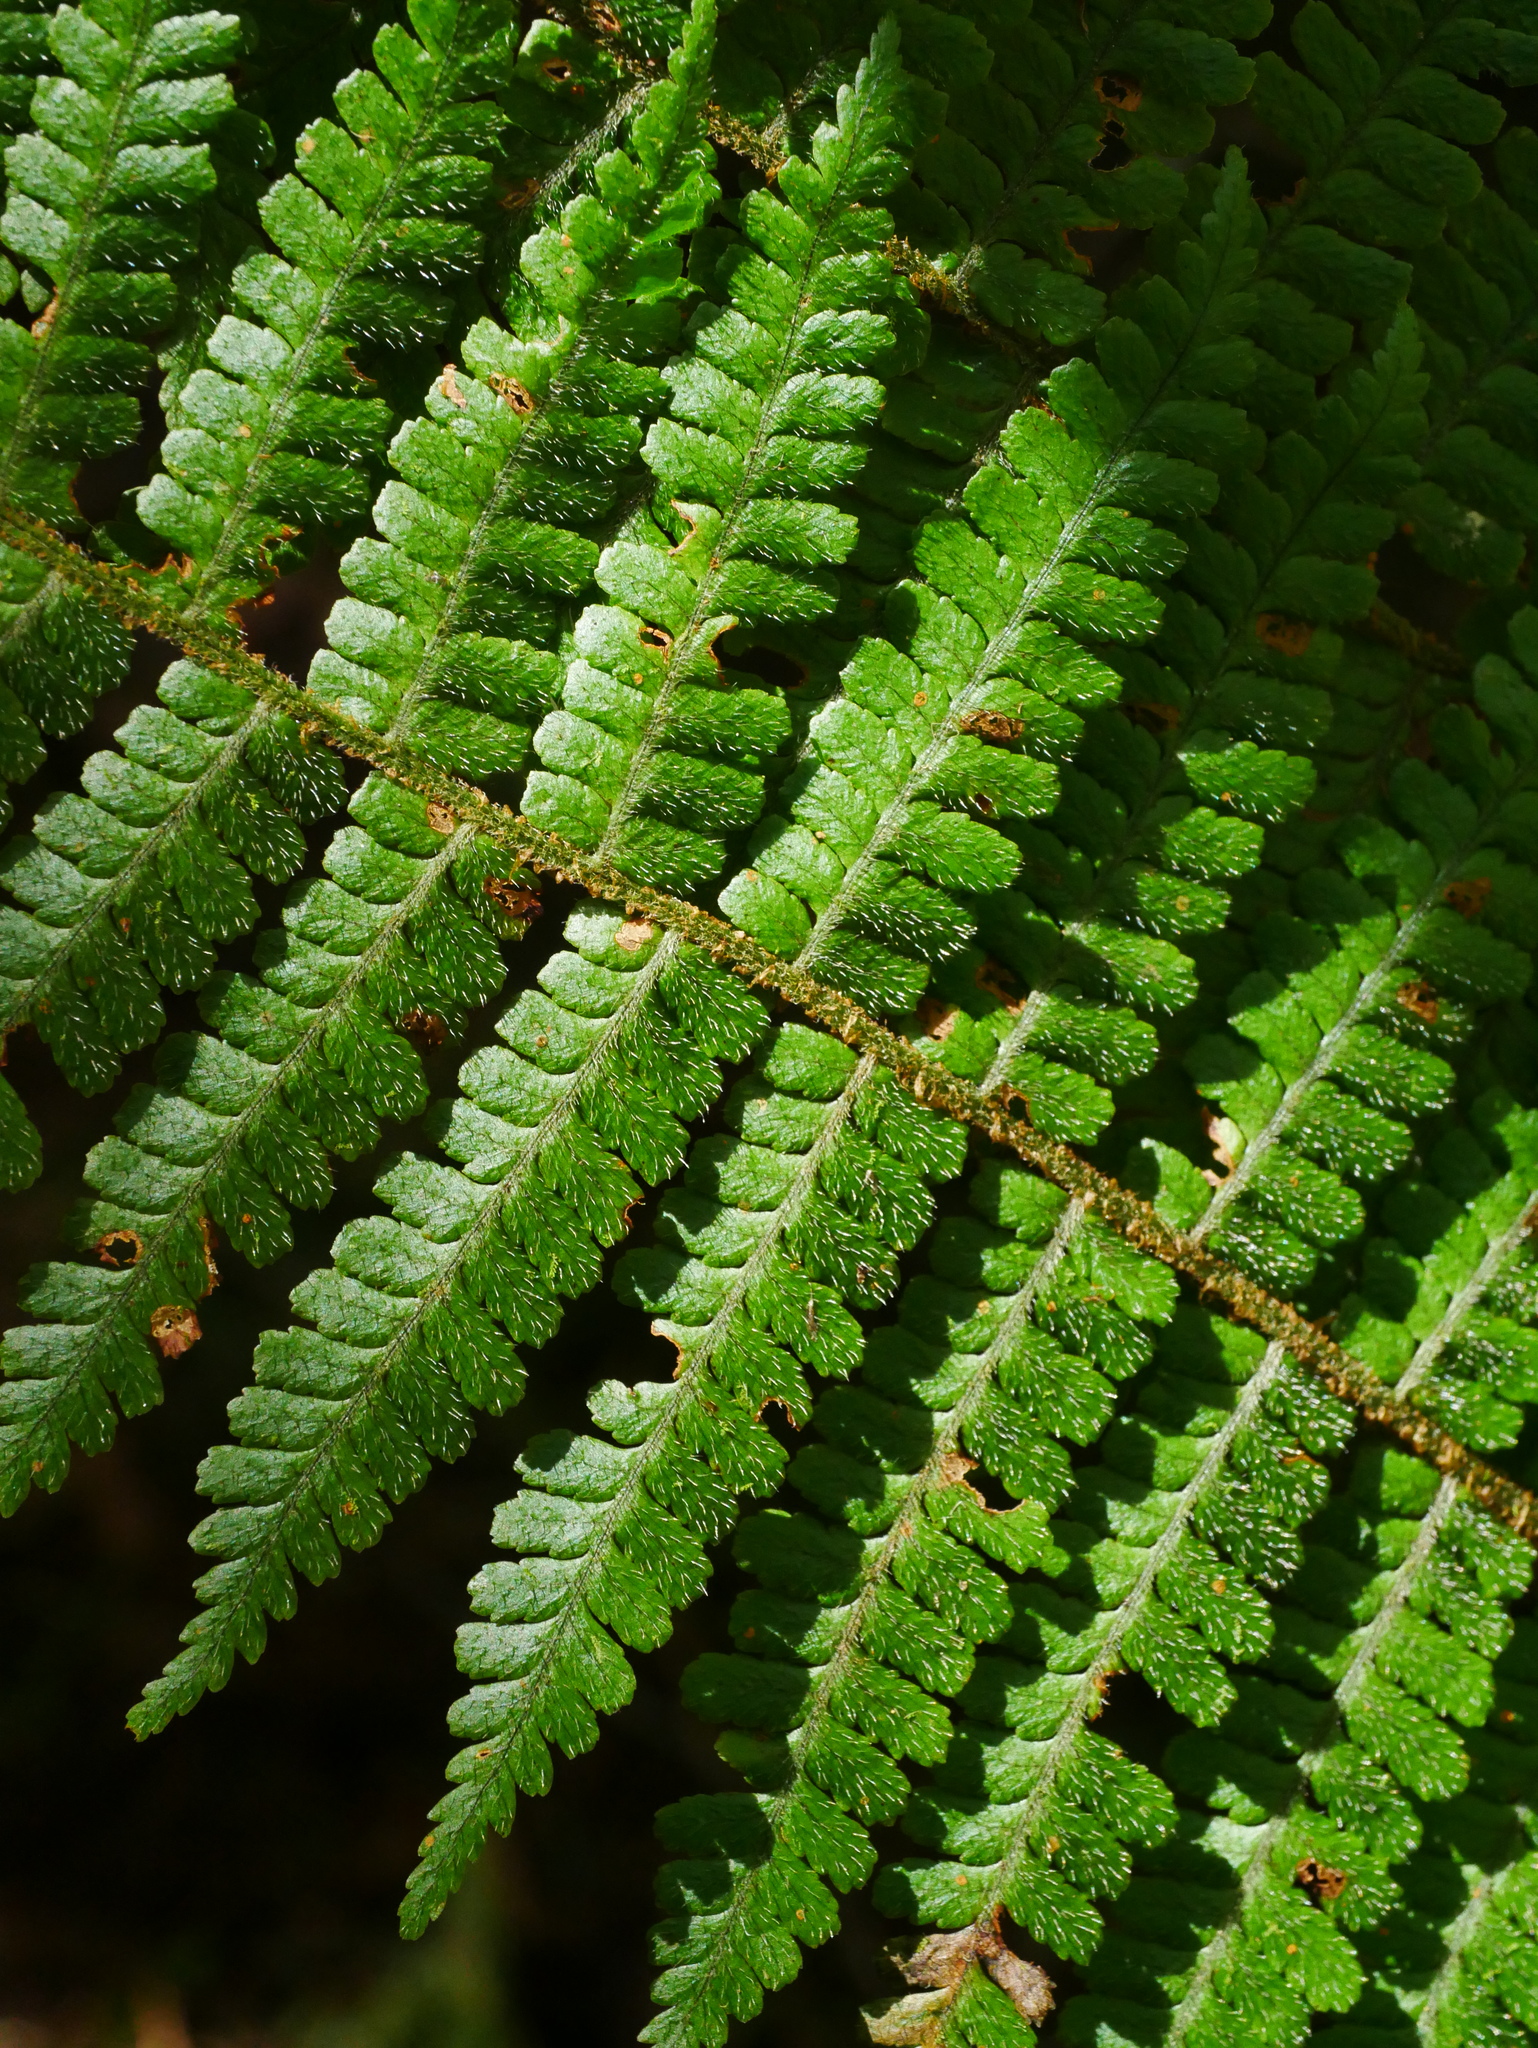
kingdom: Plantae
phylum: Tracheophyta
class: Polypodiopsida
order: Polypodiales
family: Dryopteridaceae
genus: Dryopteris
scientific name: Dryopteris kawakamii
